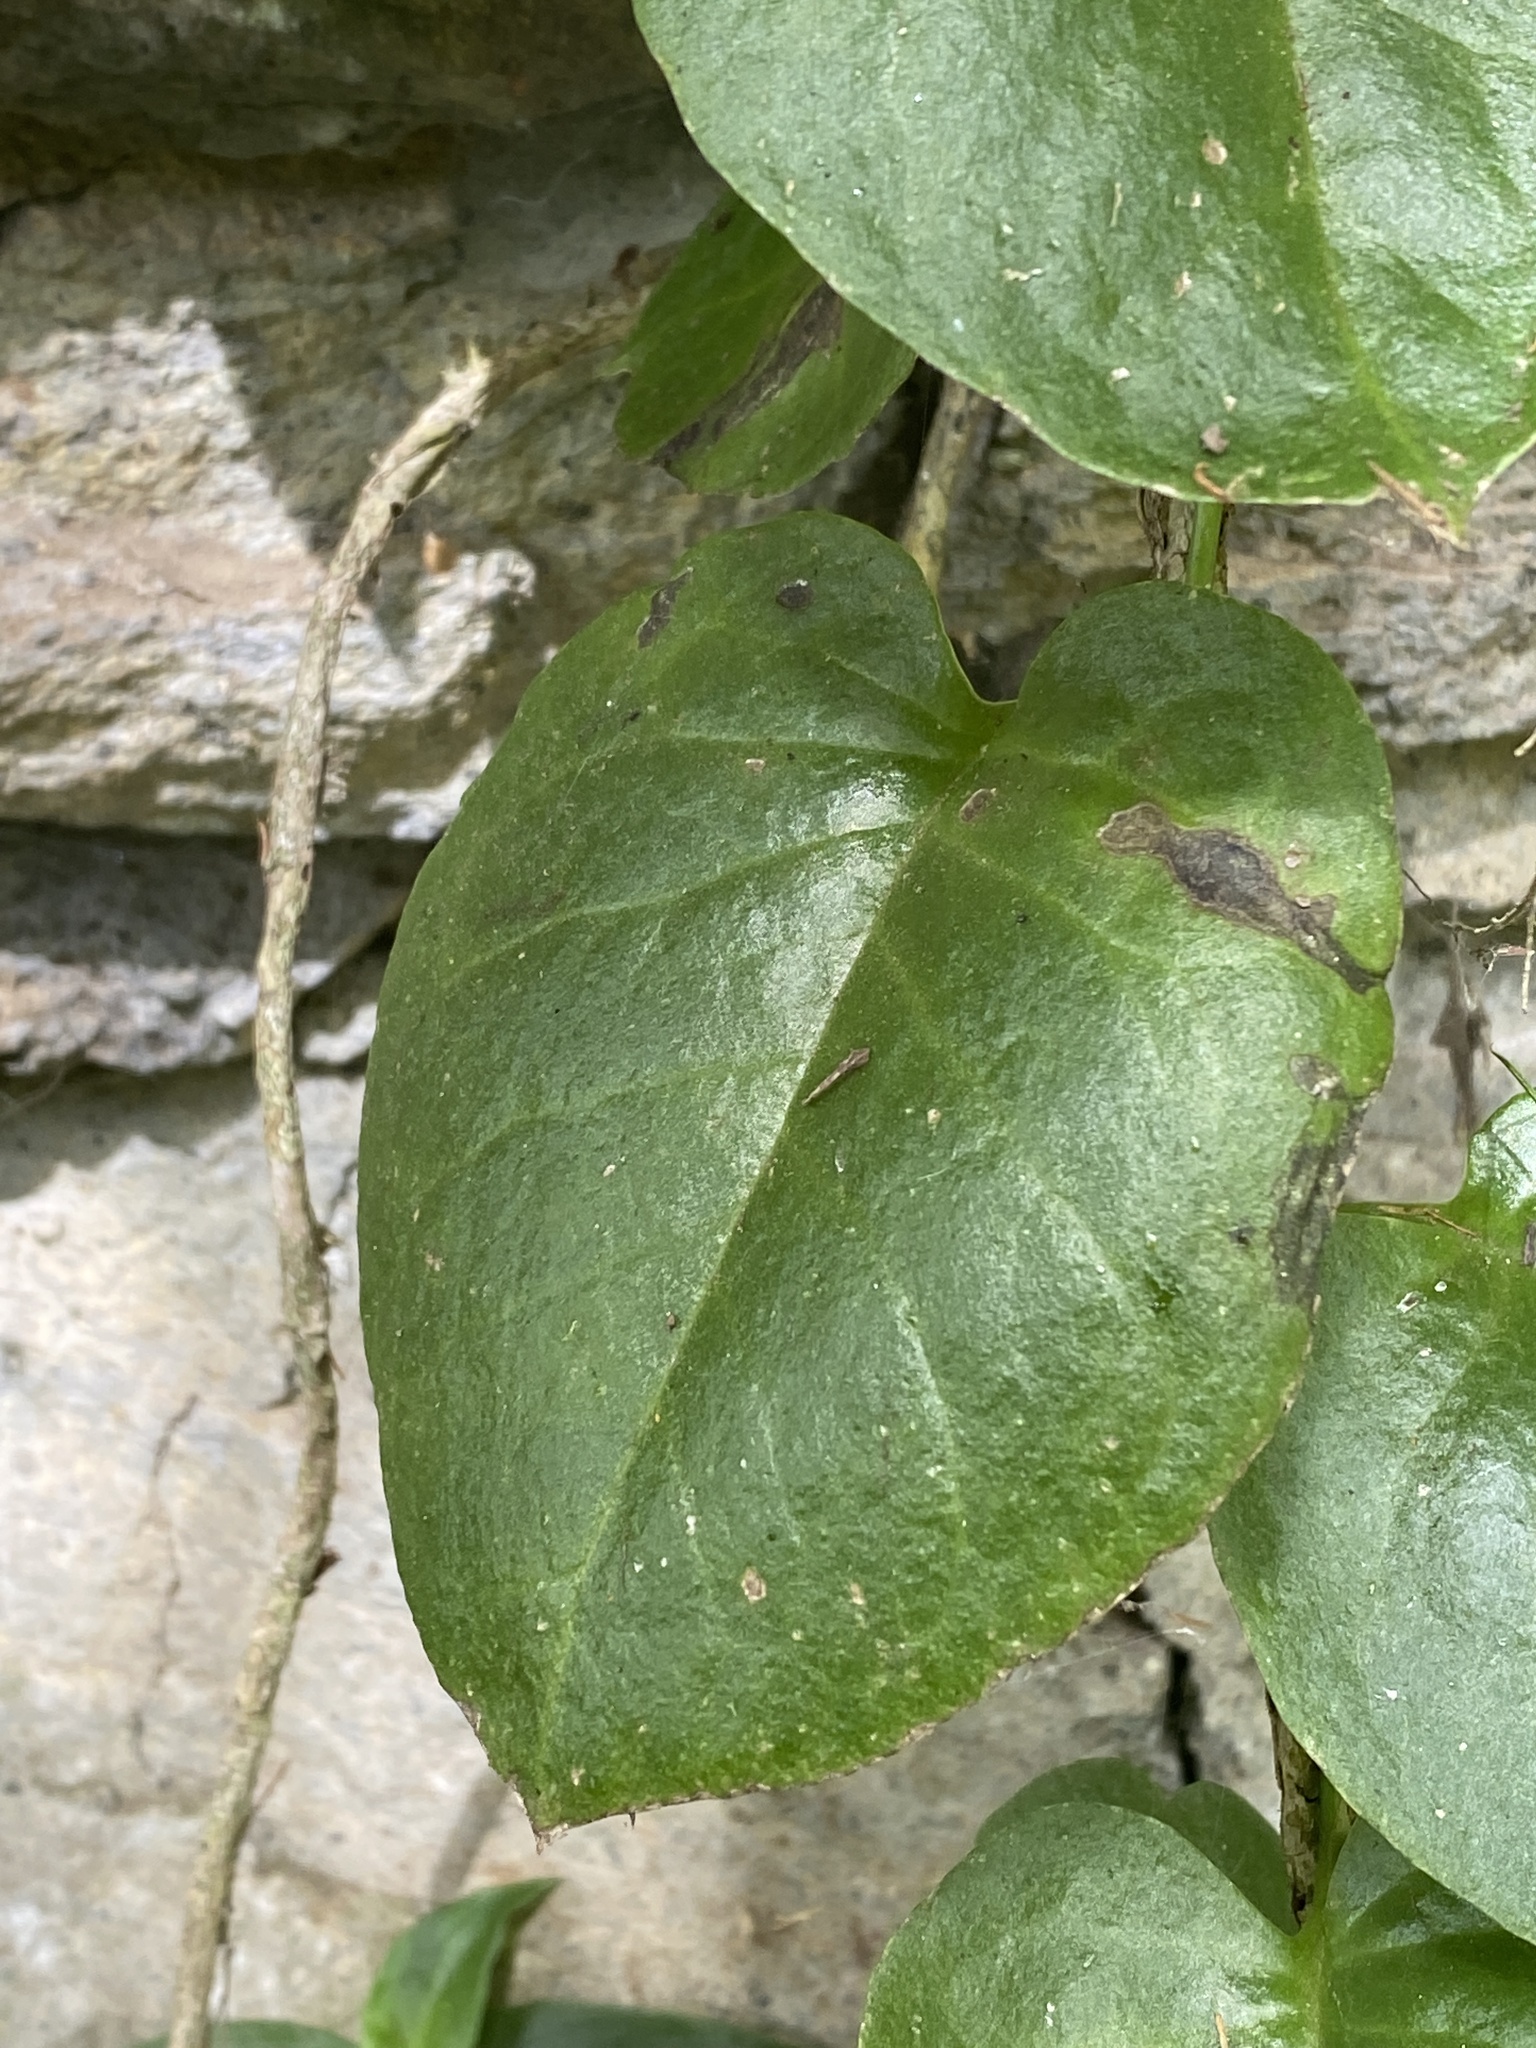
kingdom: Plantae
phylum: Tracheophyta
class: Magnoliopsida
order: Caryophyllales
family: Basellaceae
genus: Anredera
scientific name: Anredera cordifolia
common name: Heartleaf madeiravine
